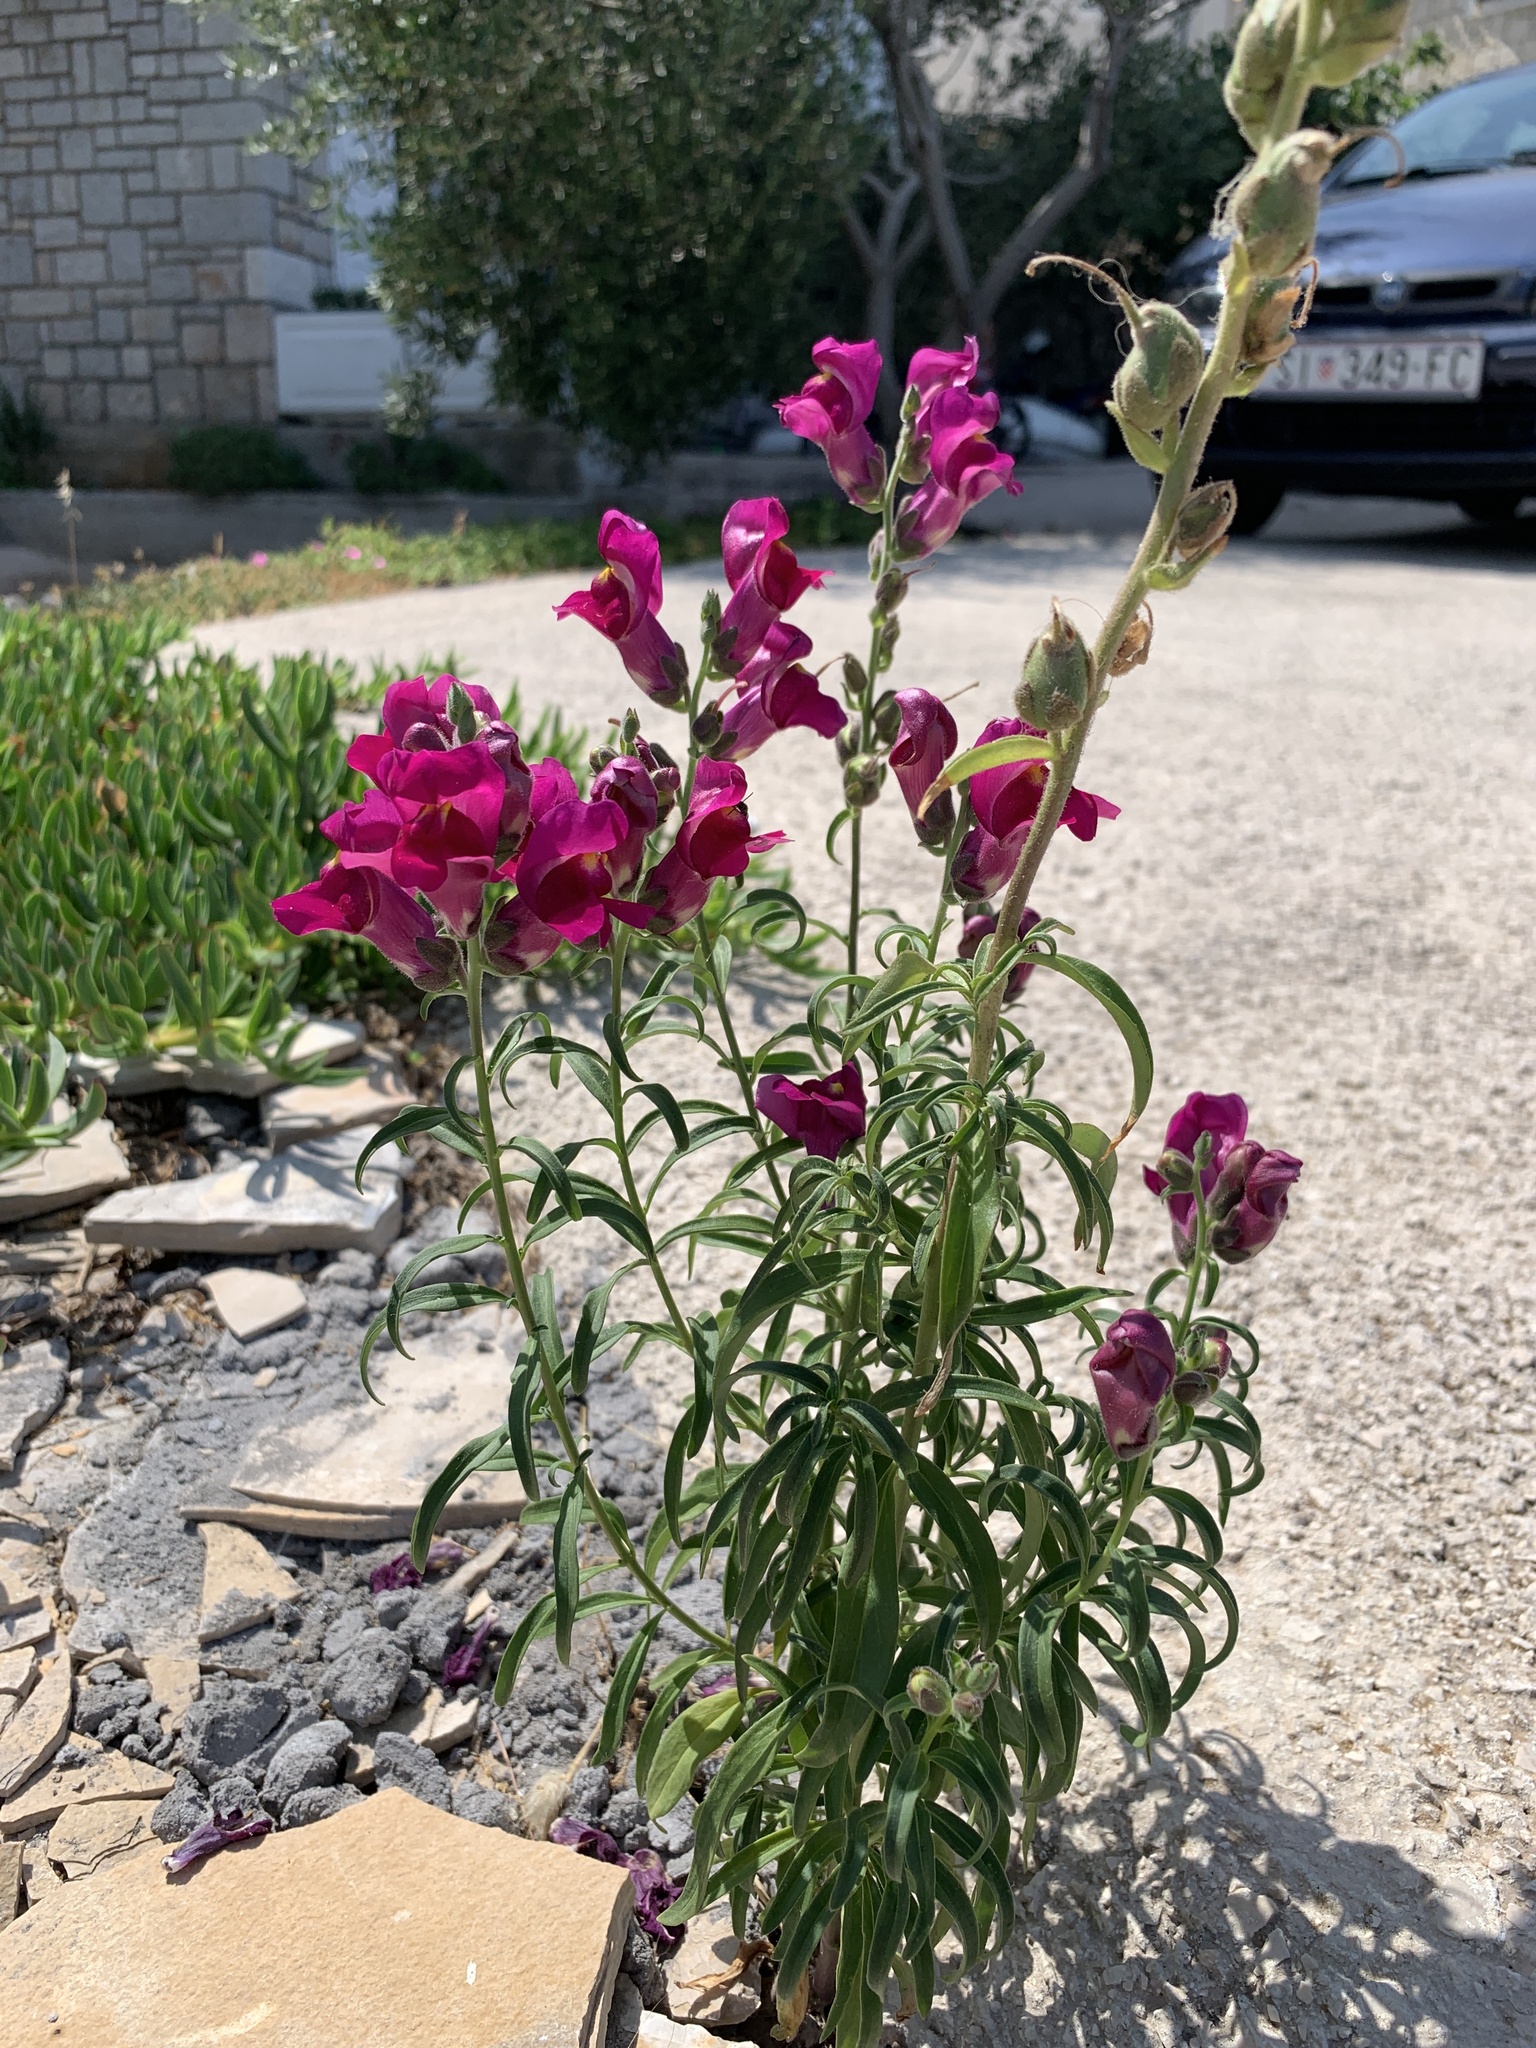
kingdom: Plantae
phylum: Tracheophyta
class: Magnoliopsida
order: Lamiales
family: Plantaginaceae
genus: Antirrhinum
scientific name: Antirrhinum majus
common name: Snapdragon
